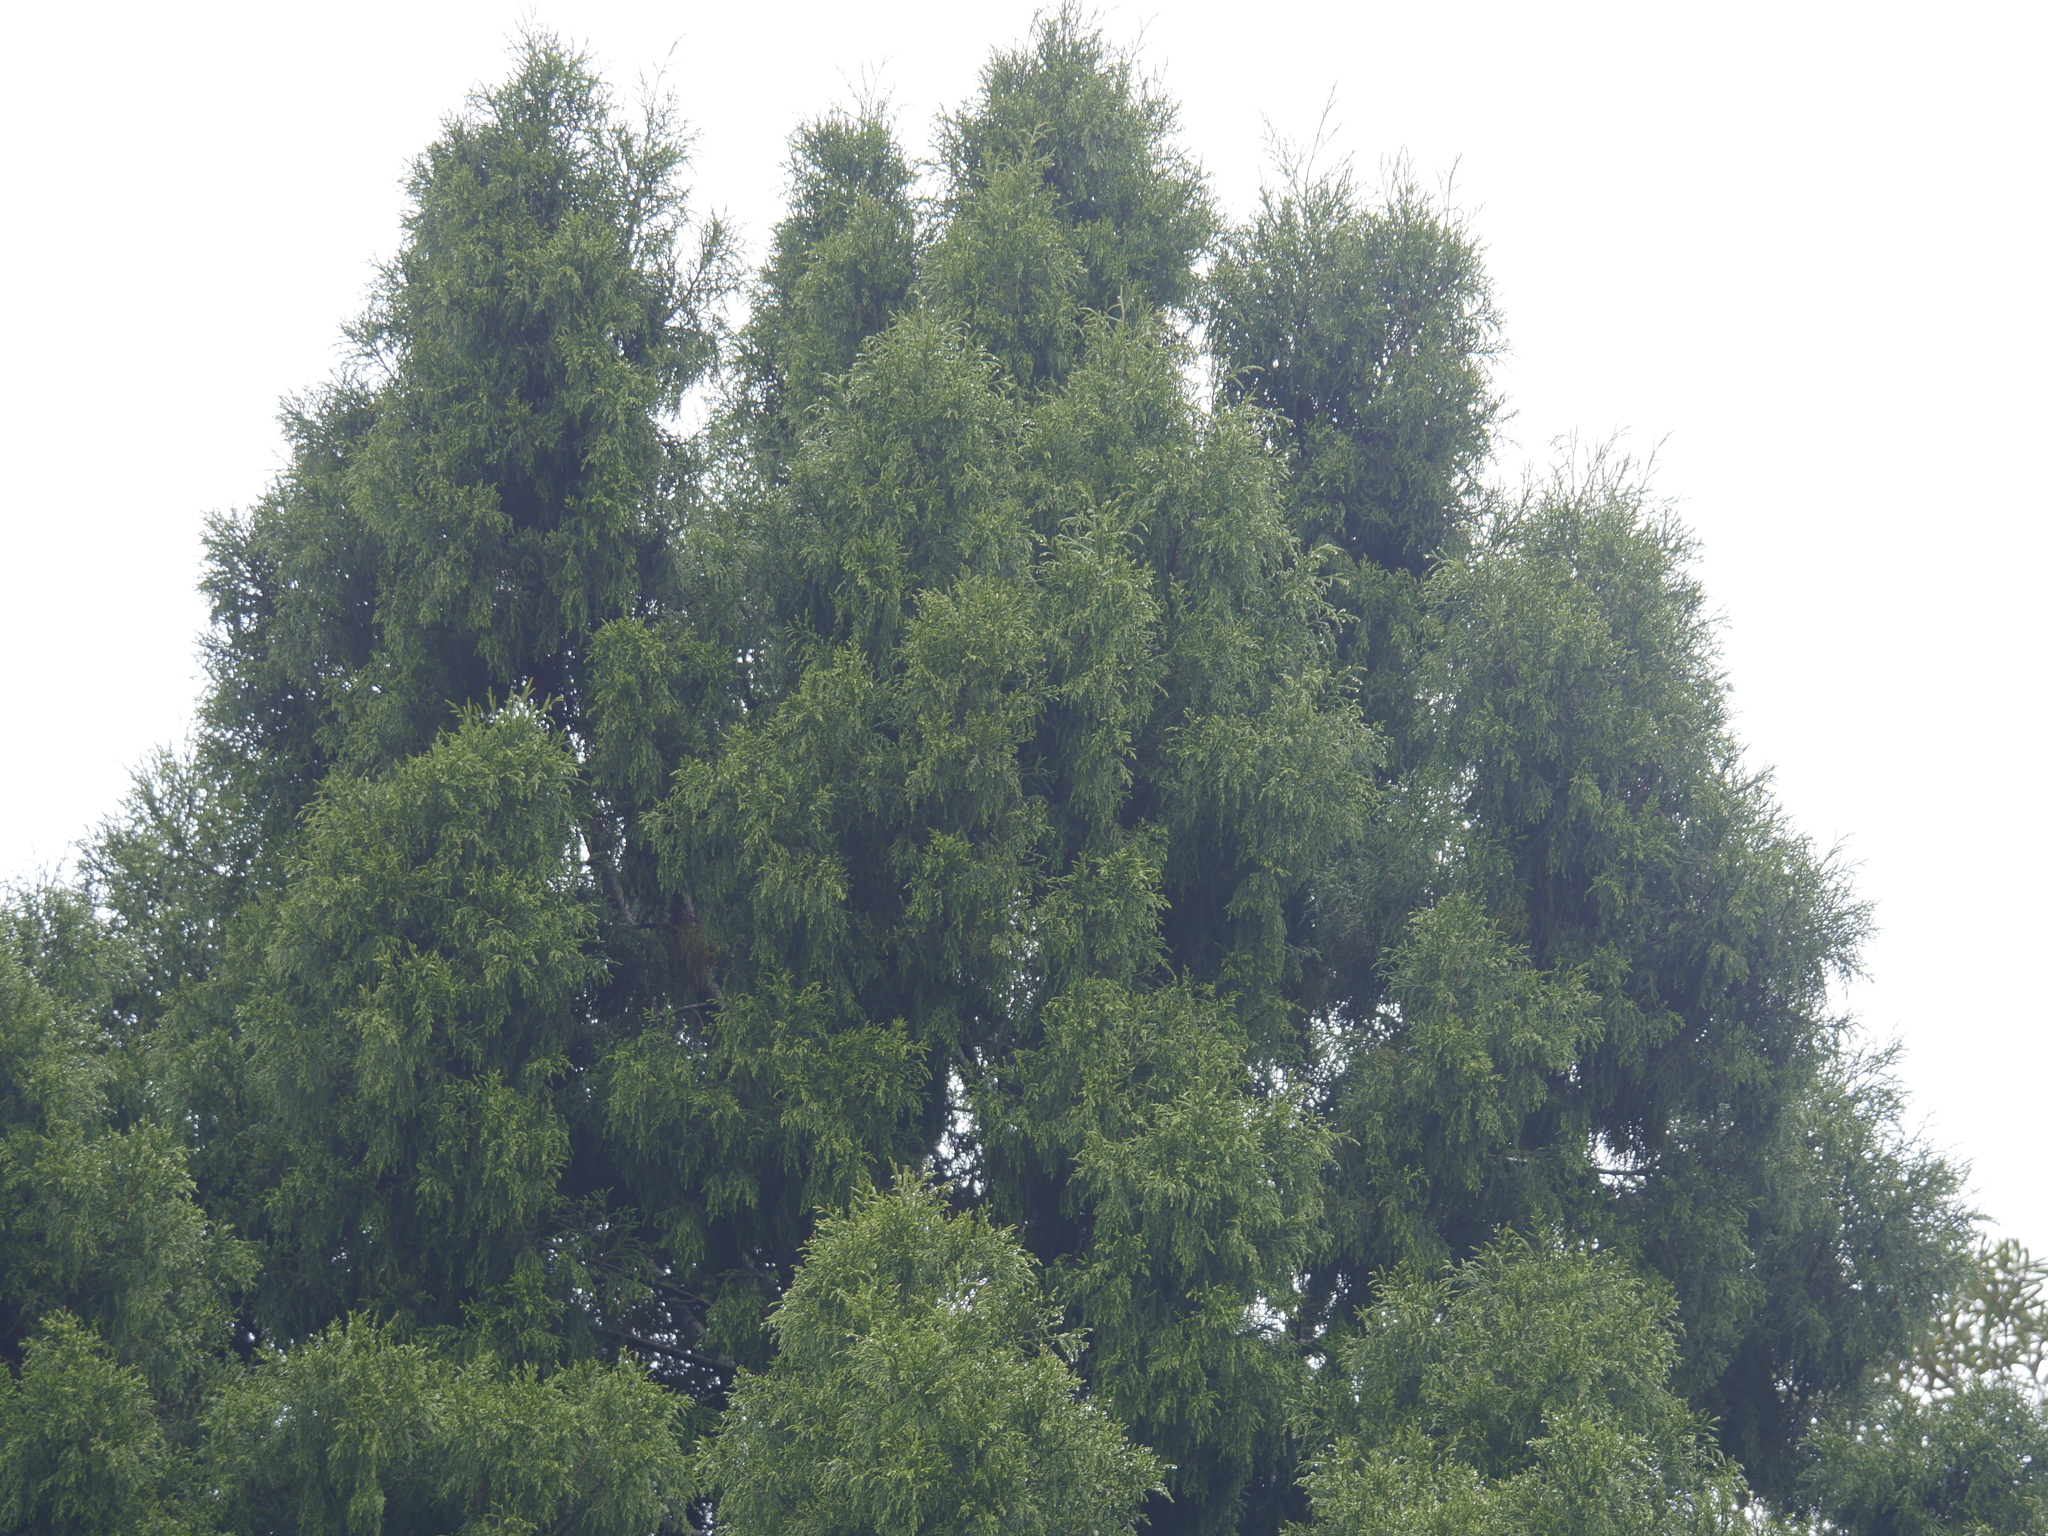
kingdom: Plantae
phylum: Tracheophyta
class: Pinopsida
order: Pinales
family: Podocarpaceae
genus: Dacrydium
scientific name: Dacrydium cupressinum
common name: Red pine
